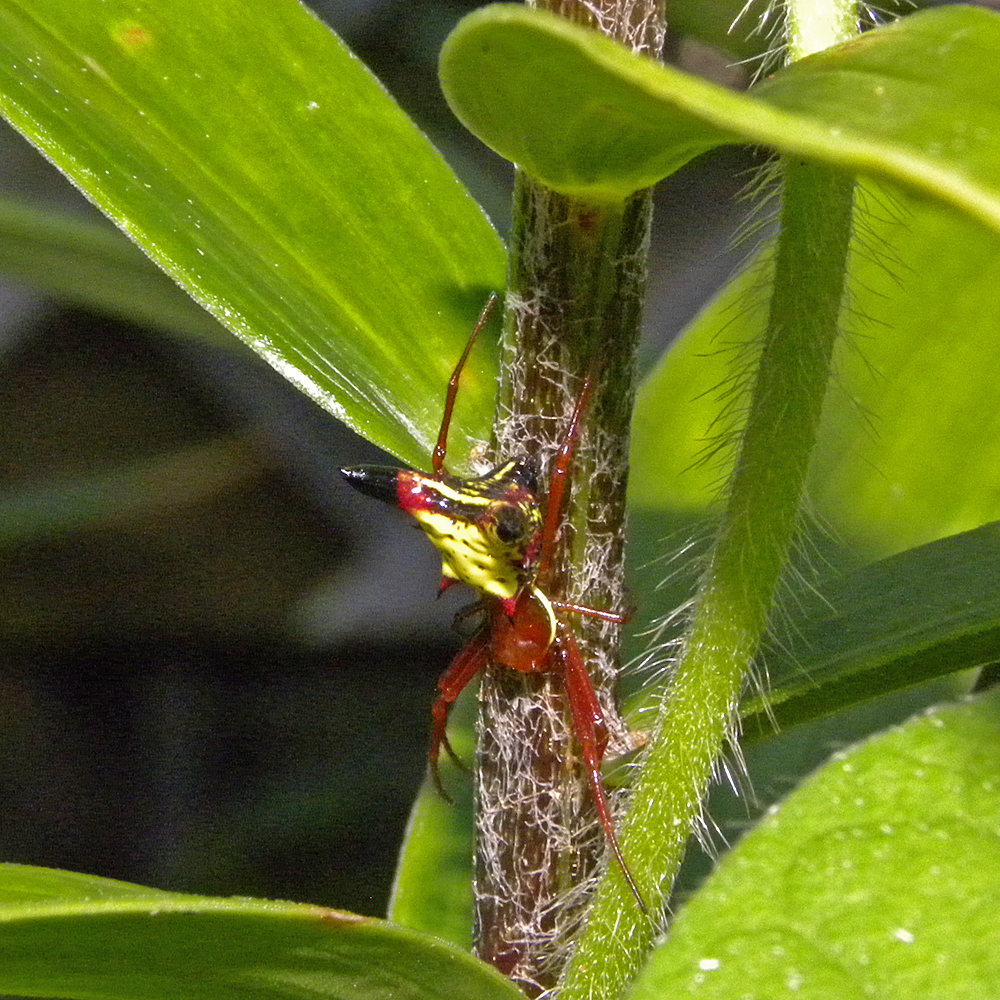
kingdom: Animalia
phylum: Arthropoda
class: Arachnida
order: Araneae
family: Araneidae
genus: Micrathena
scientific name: Micrathena sagittata
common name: Orb weavers
